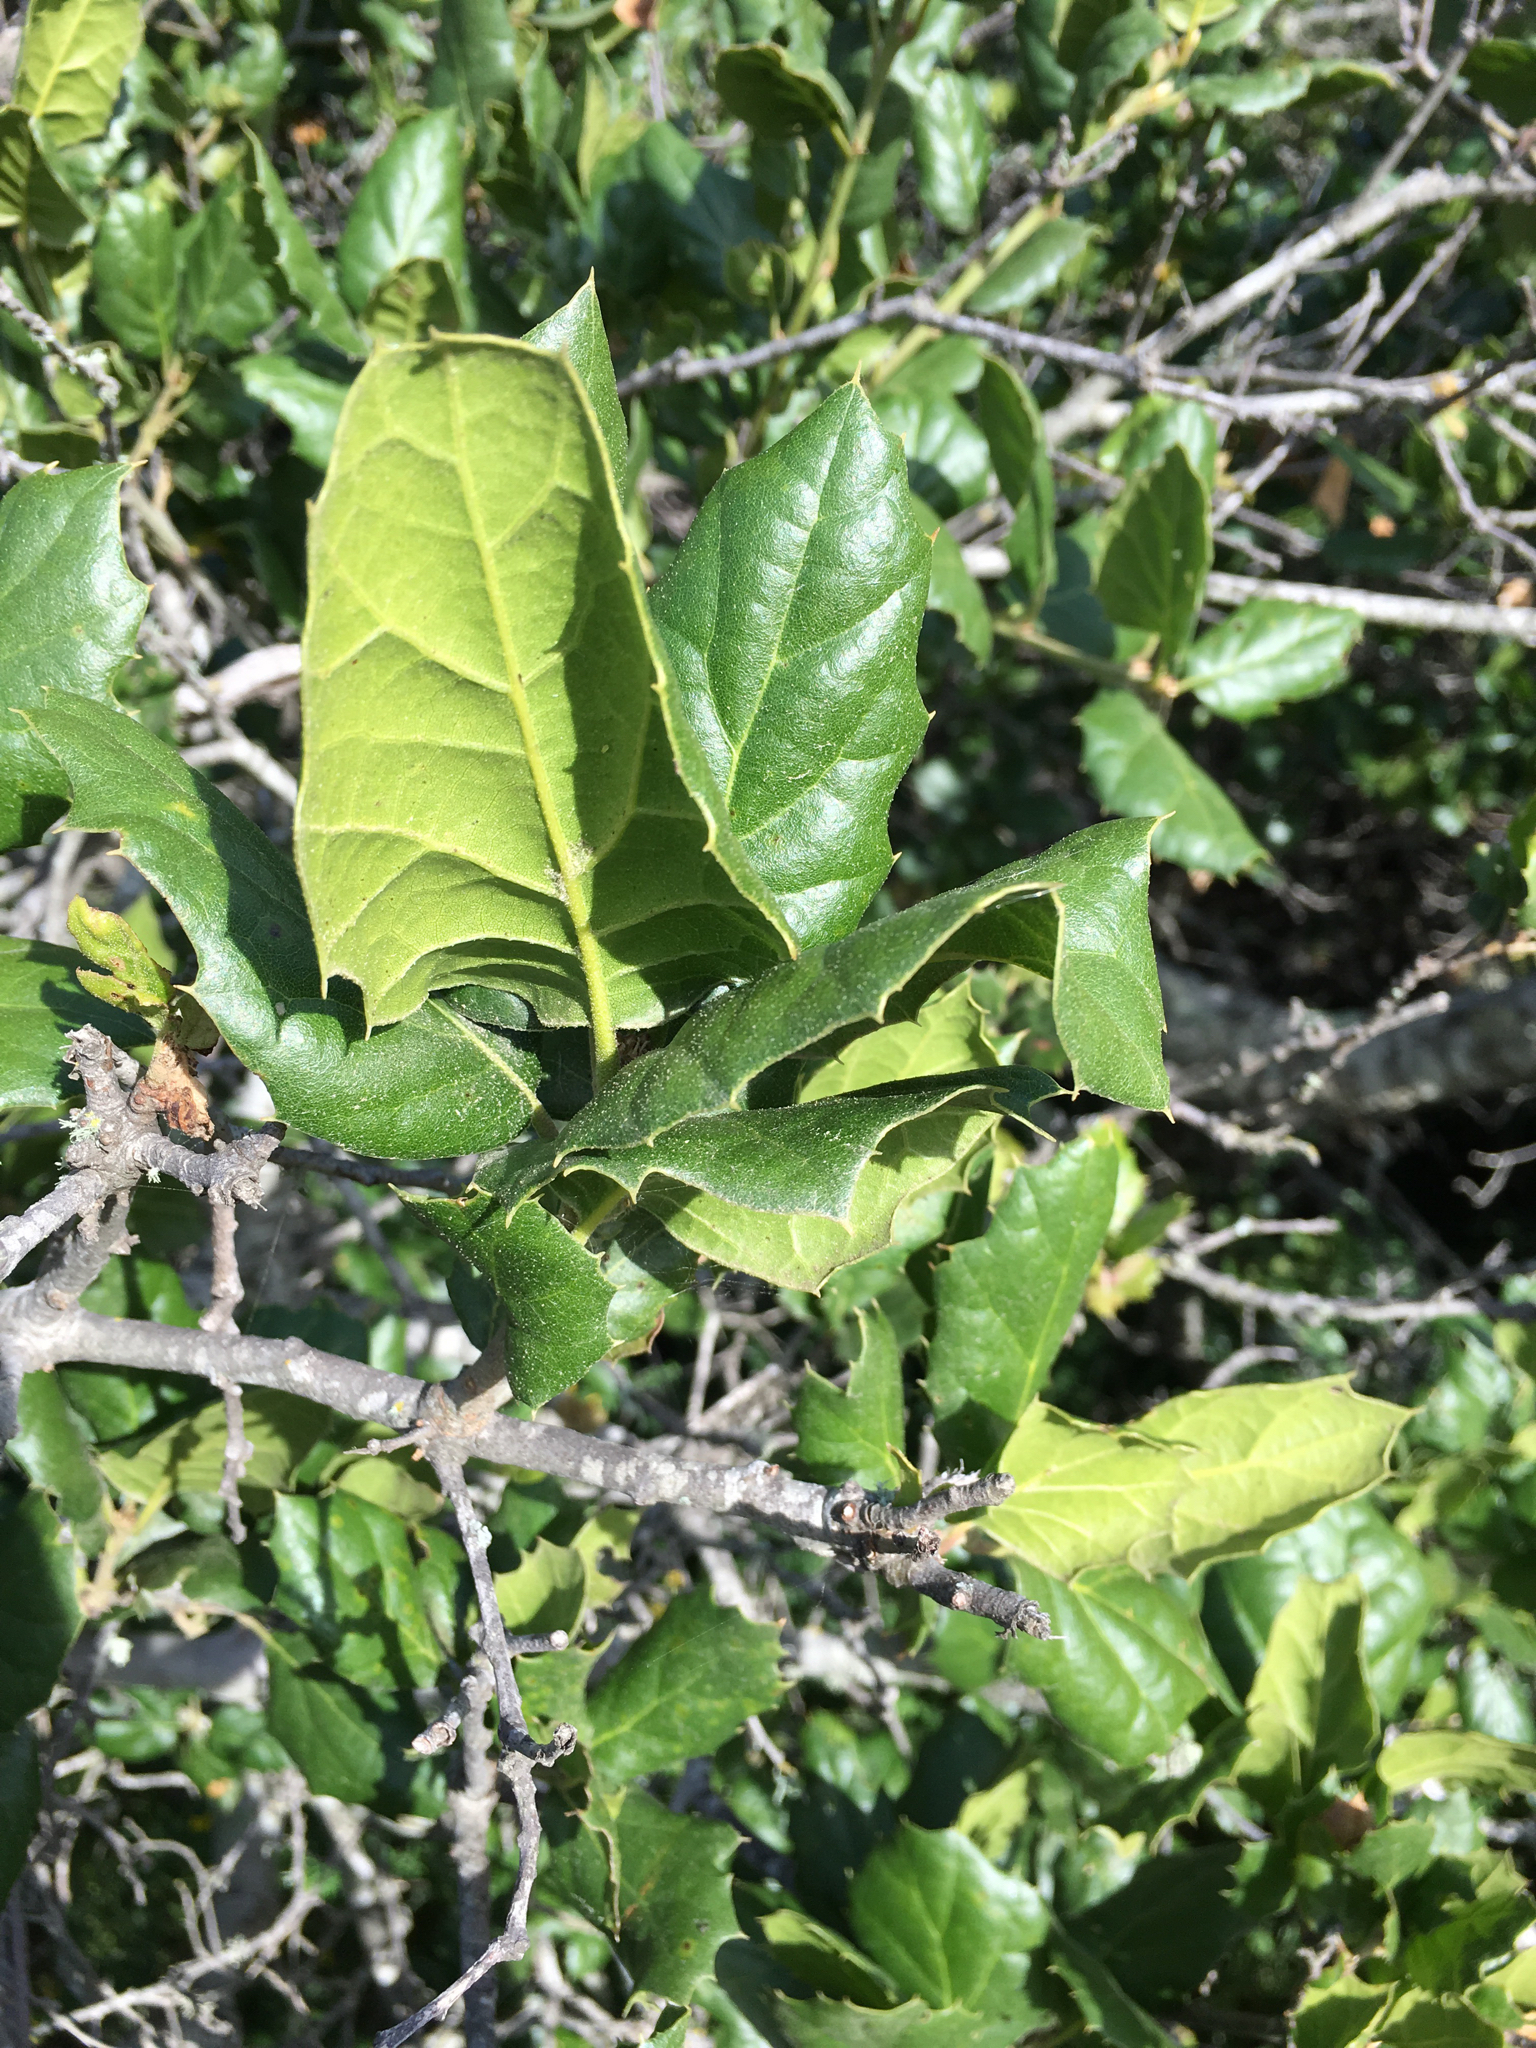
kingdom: Plantae
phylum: Tracheophyta
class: Magnoliopsida
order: Fagales
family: Fagaceae
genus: Quercus
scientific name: Quercus agrifolia
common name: California live oak
